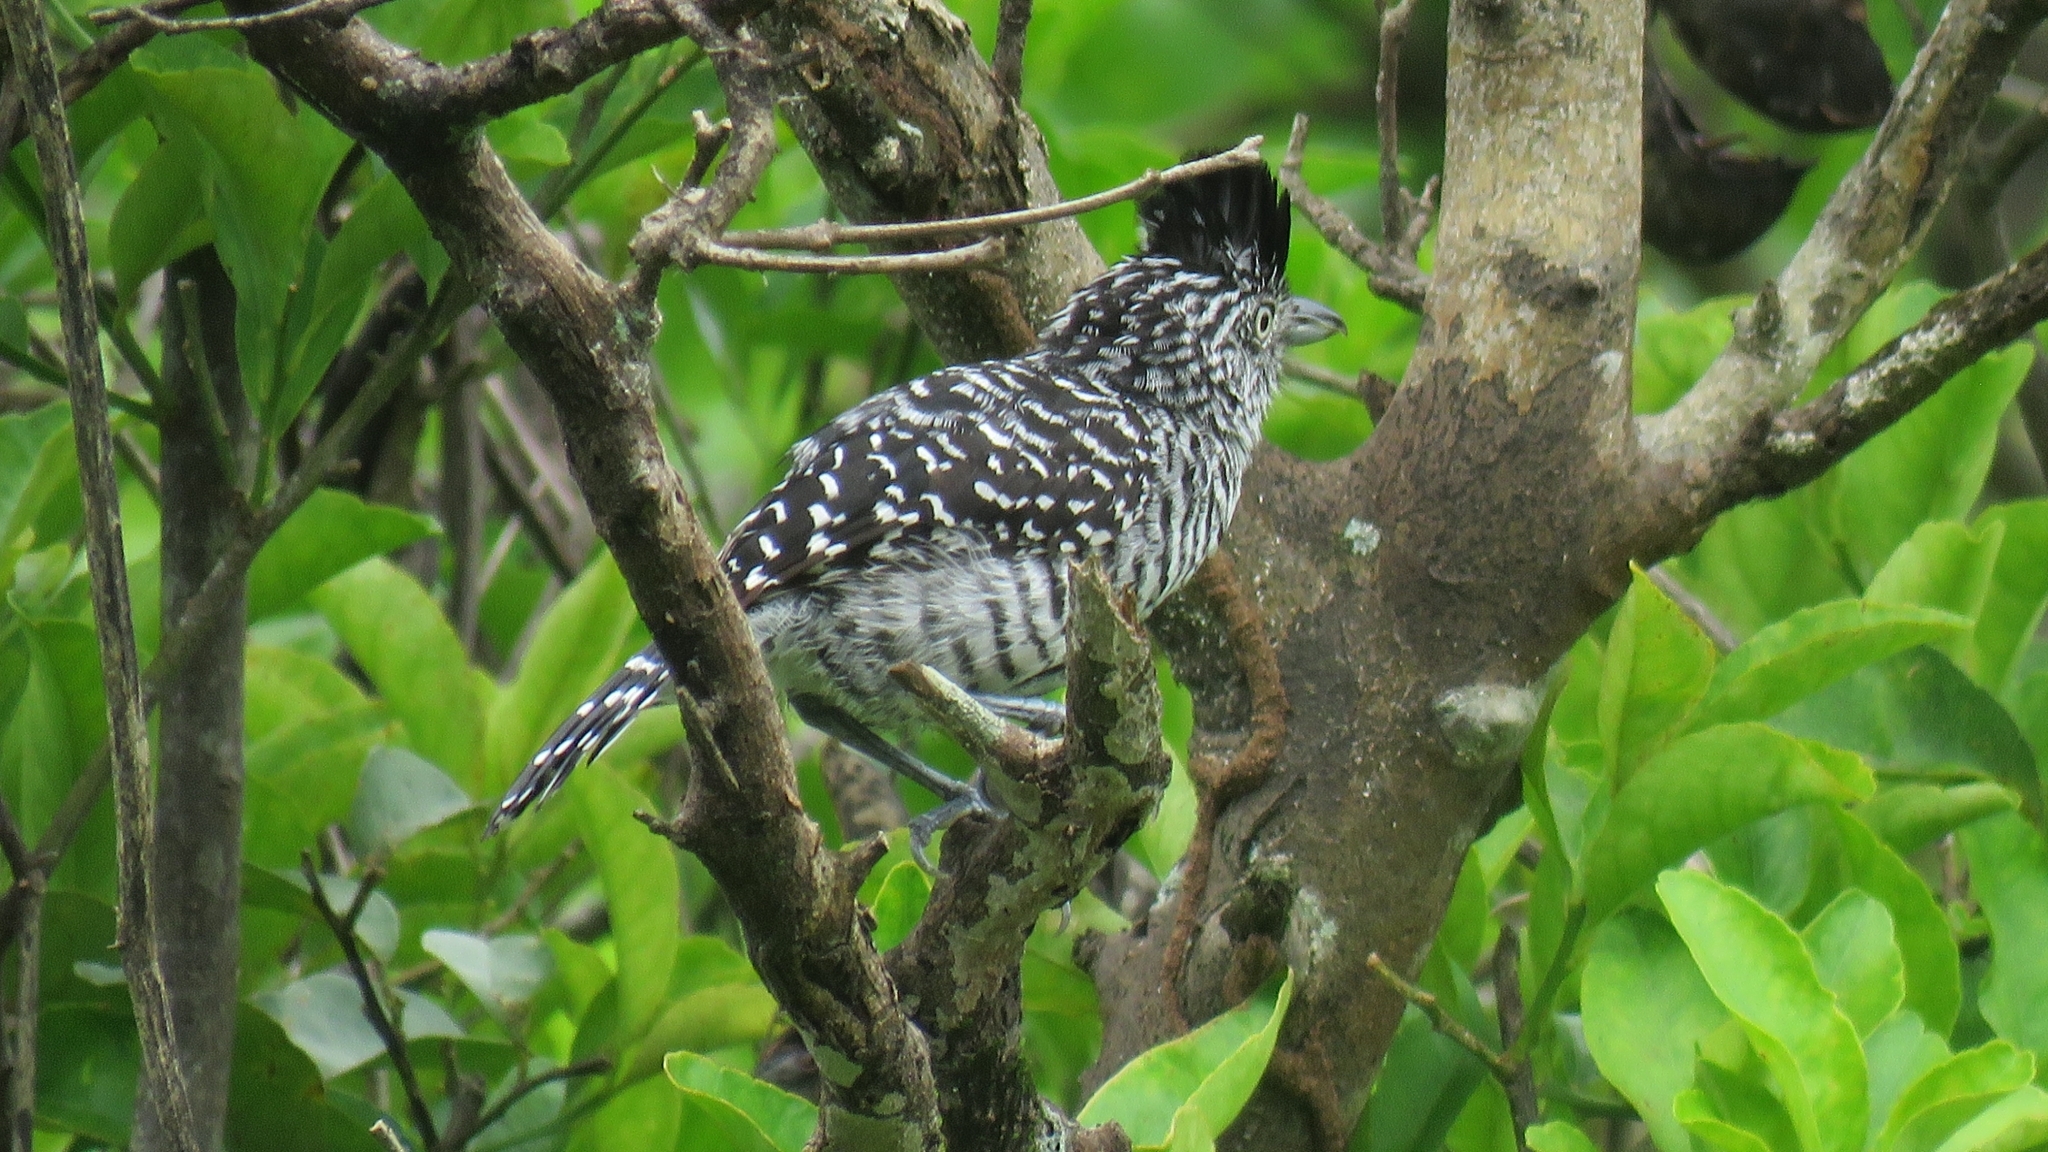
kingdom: Animalia
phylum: Chordata
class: Aves
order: Passeriformes
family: Thamnophilidae
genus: Thamnophilus
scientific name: Thamnophilus doliatus
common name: Barred antshrike
